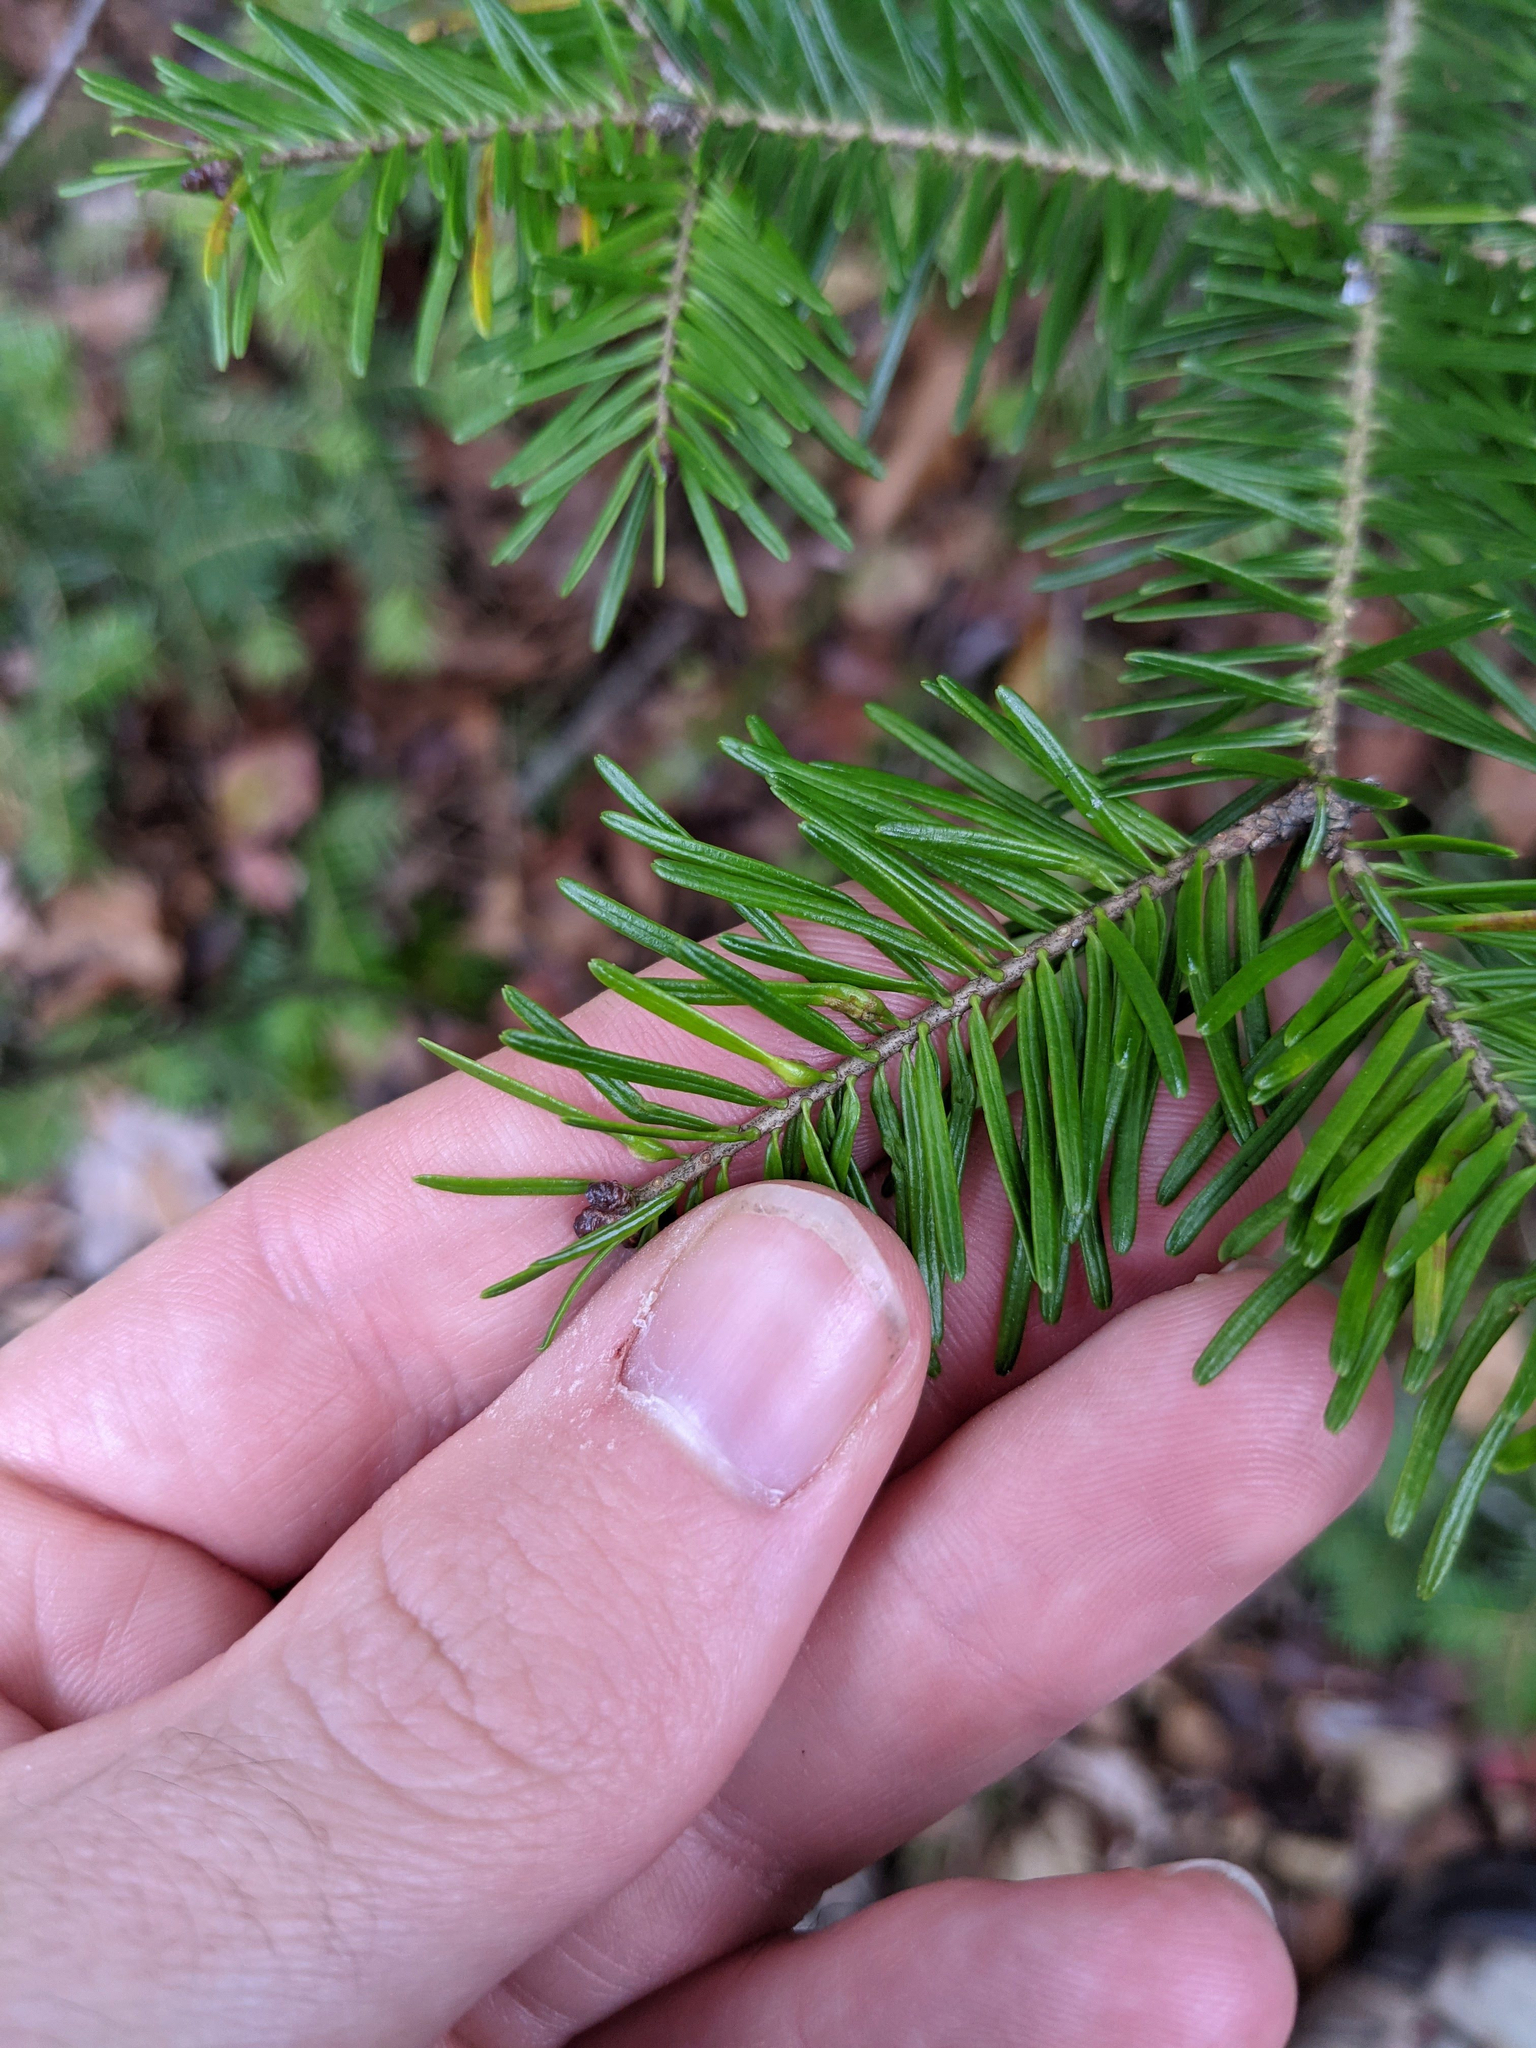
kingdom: Animalia
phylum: Arthropoda
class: Insecta
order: Diptera
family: Cecidomyiidae
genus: Paradiplosis
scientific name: Paradiplosis tumifex
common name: Gall midge
